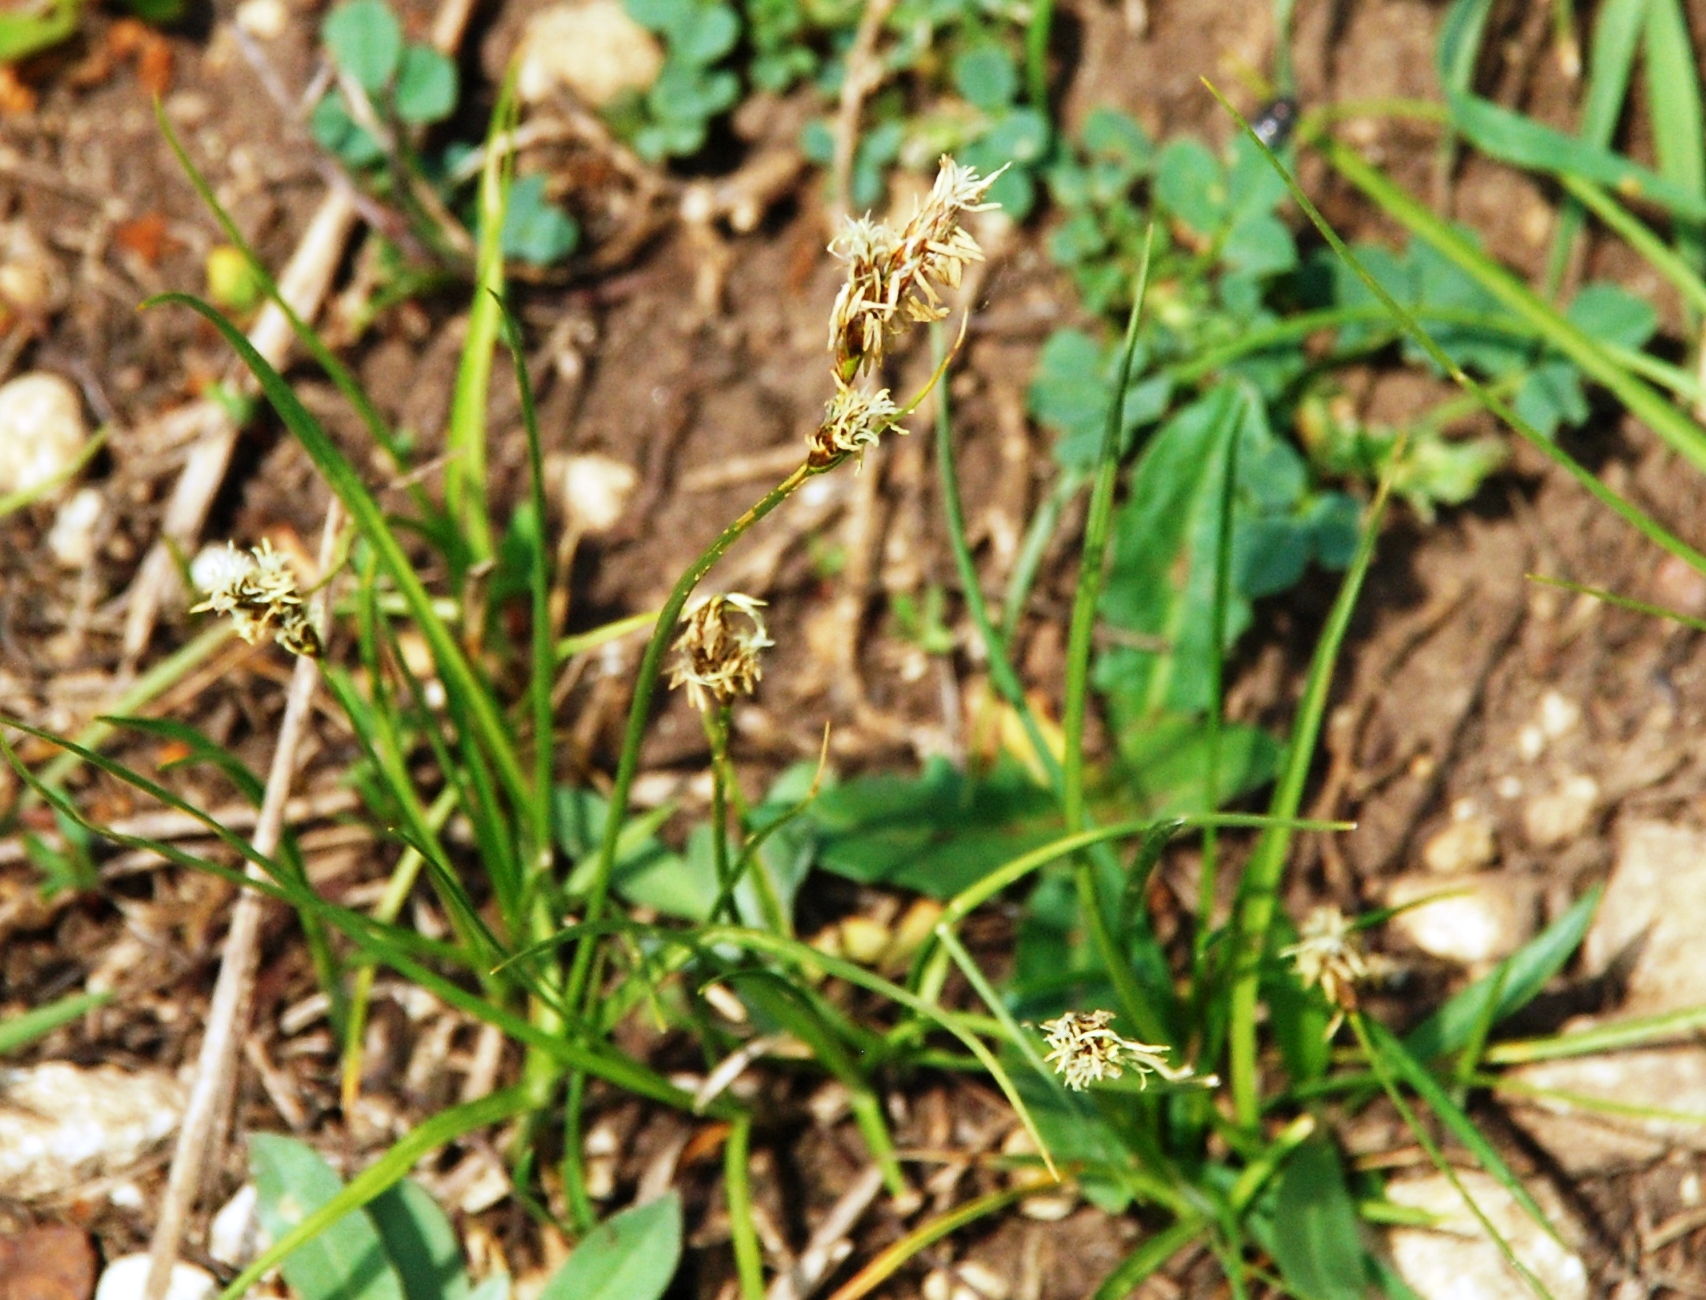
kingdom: Plantae
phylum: Tracheophyta
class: Liliopsida
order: Poales
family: Cyperaceae
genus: Carex
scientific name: Carex praecox
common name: Early sedge
